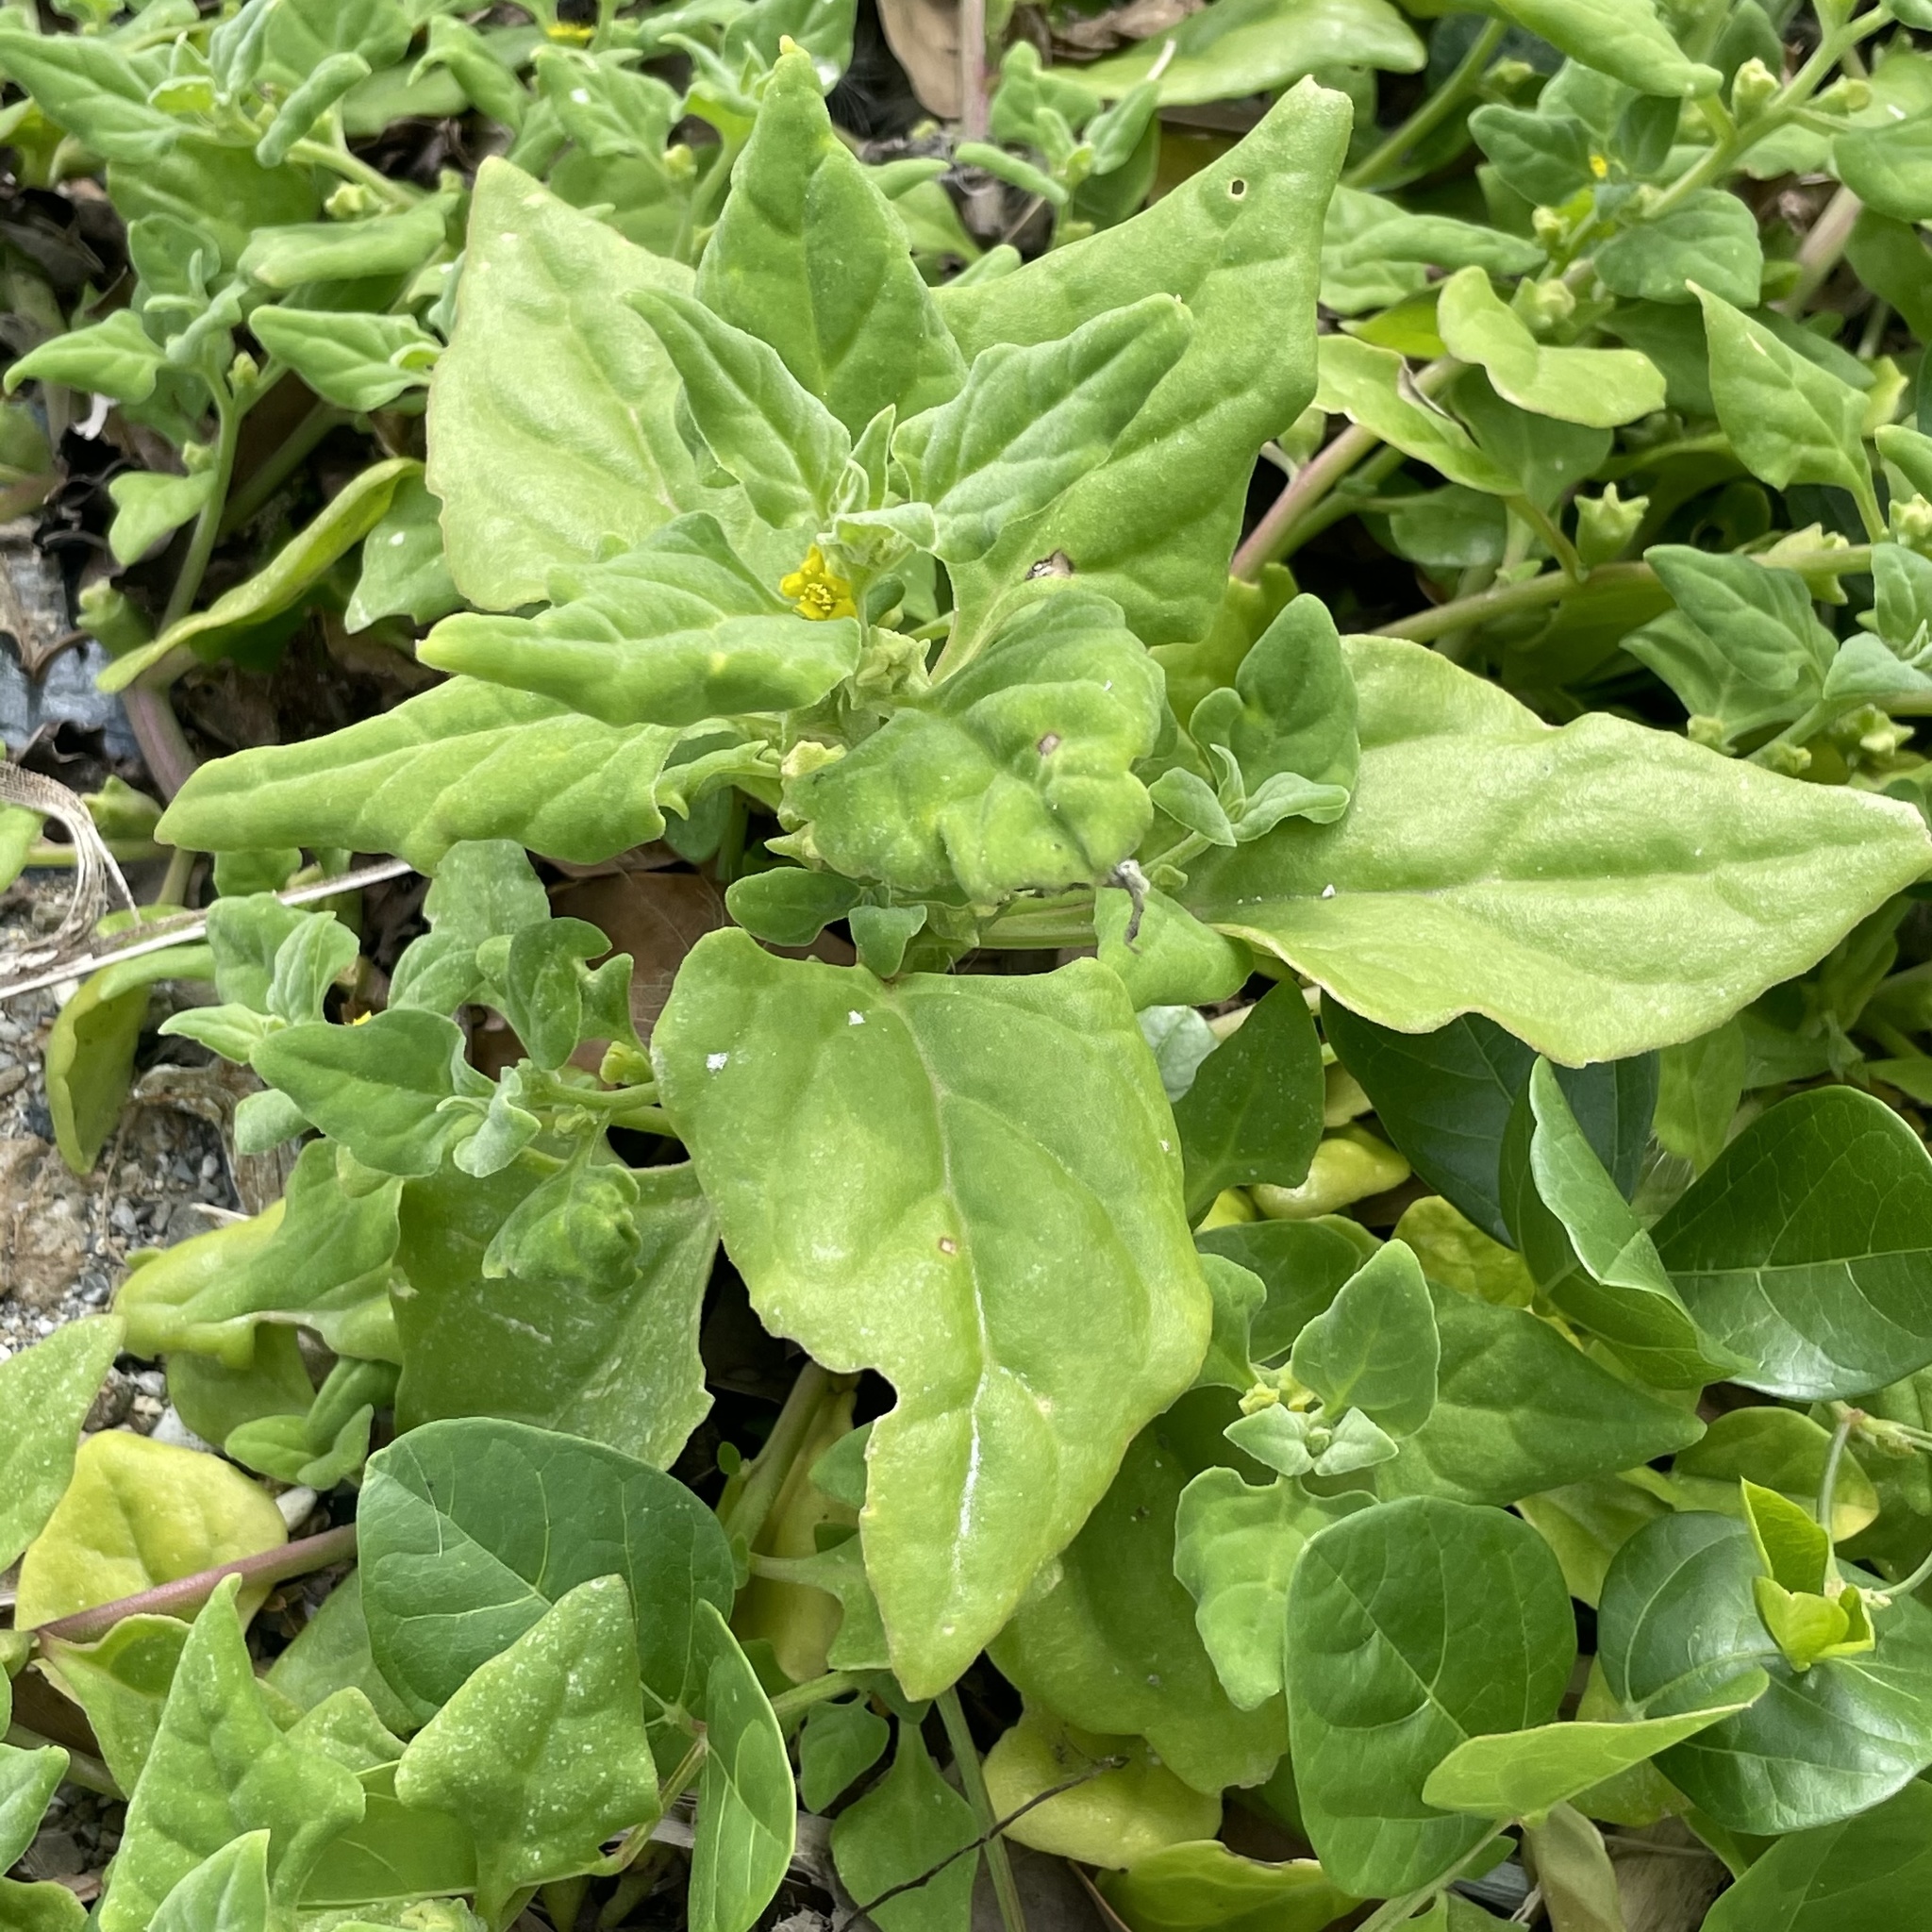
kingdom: Plantae
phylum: Tracheophyta
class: Magnoliopsida
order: Caryophyllales
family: Aizoaceae
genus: Tetragonia
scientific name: Tetragonia tetragonoides
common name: New zealand-spinach
